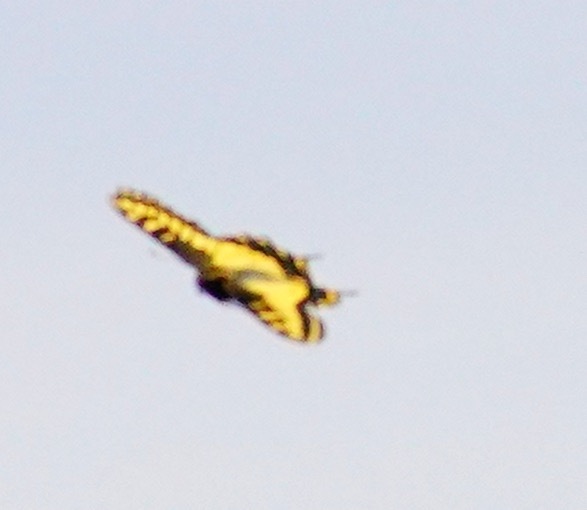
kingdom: Animalia
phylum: Arthropoda
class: Insecta
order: Lepidoptera
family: Papilionidae
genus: Papilio
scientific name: Papilio zelicaon
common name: Anise swallowtail
